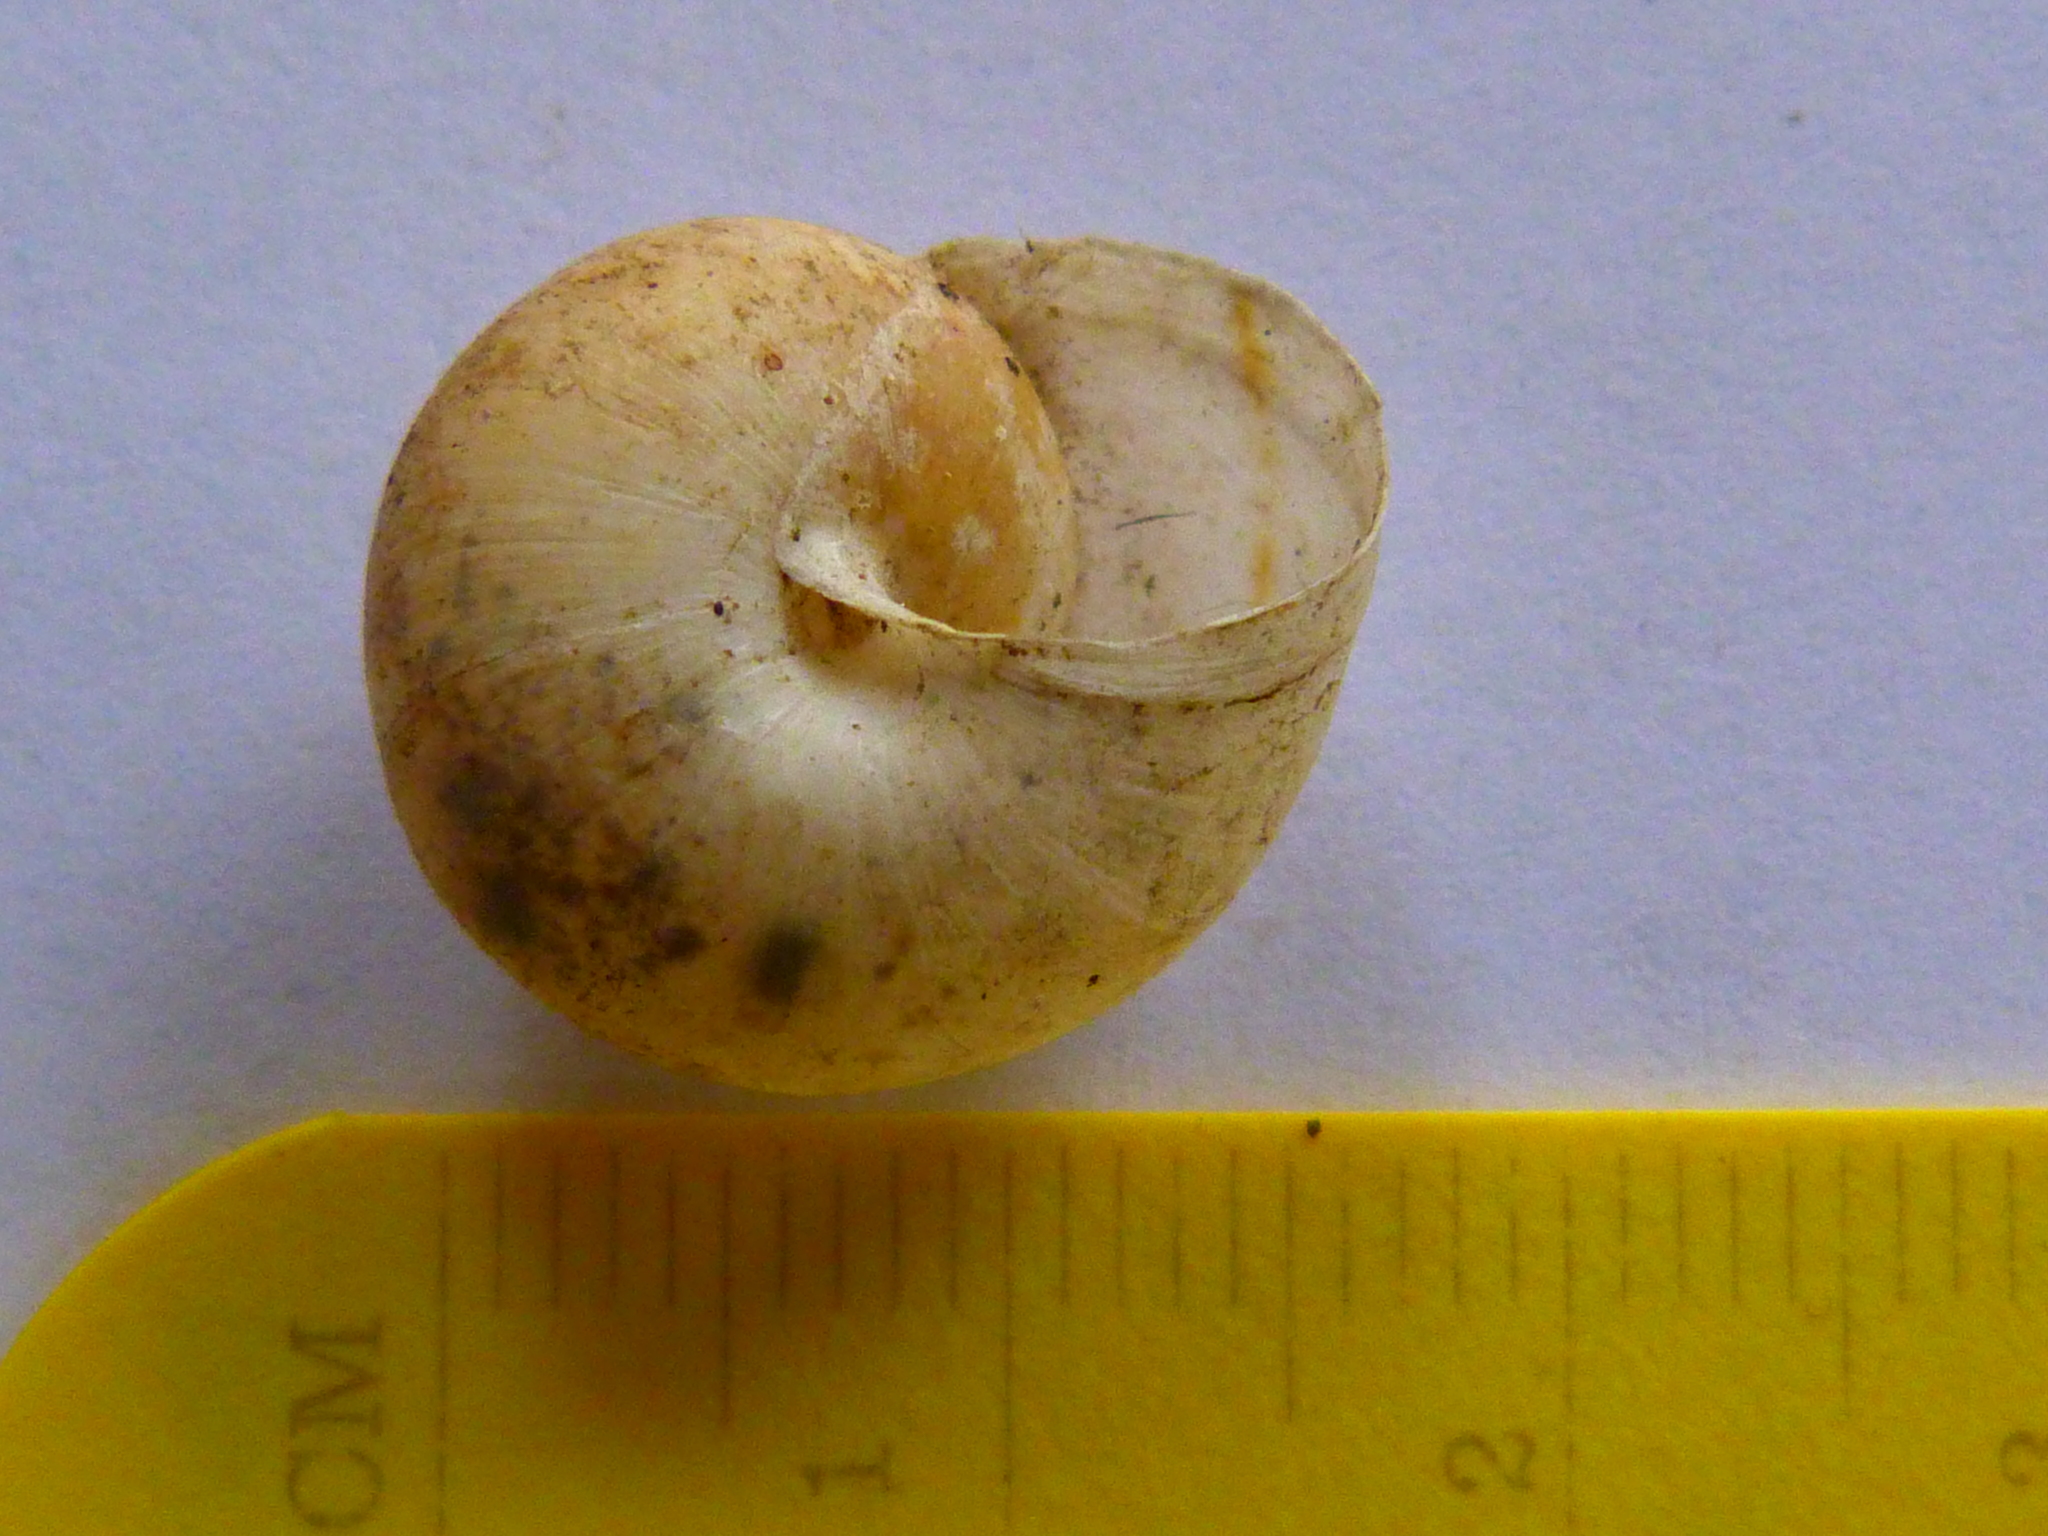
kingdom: Animalia
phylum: Mollusca
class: Gastropoda
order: Stylommatophora
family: Xanthonychidae
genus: Helminthoglypta
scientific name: Helminthoglypta traskii
